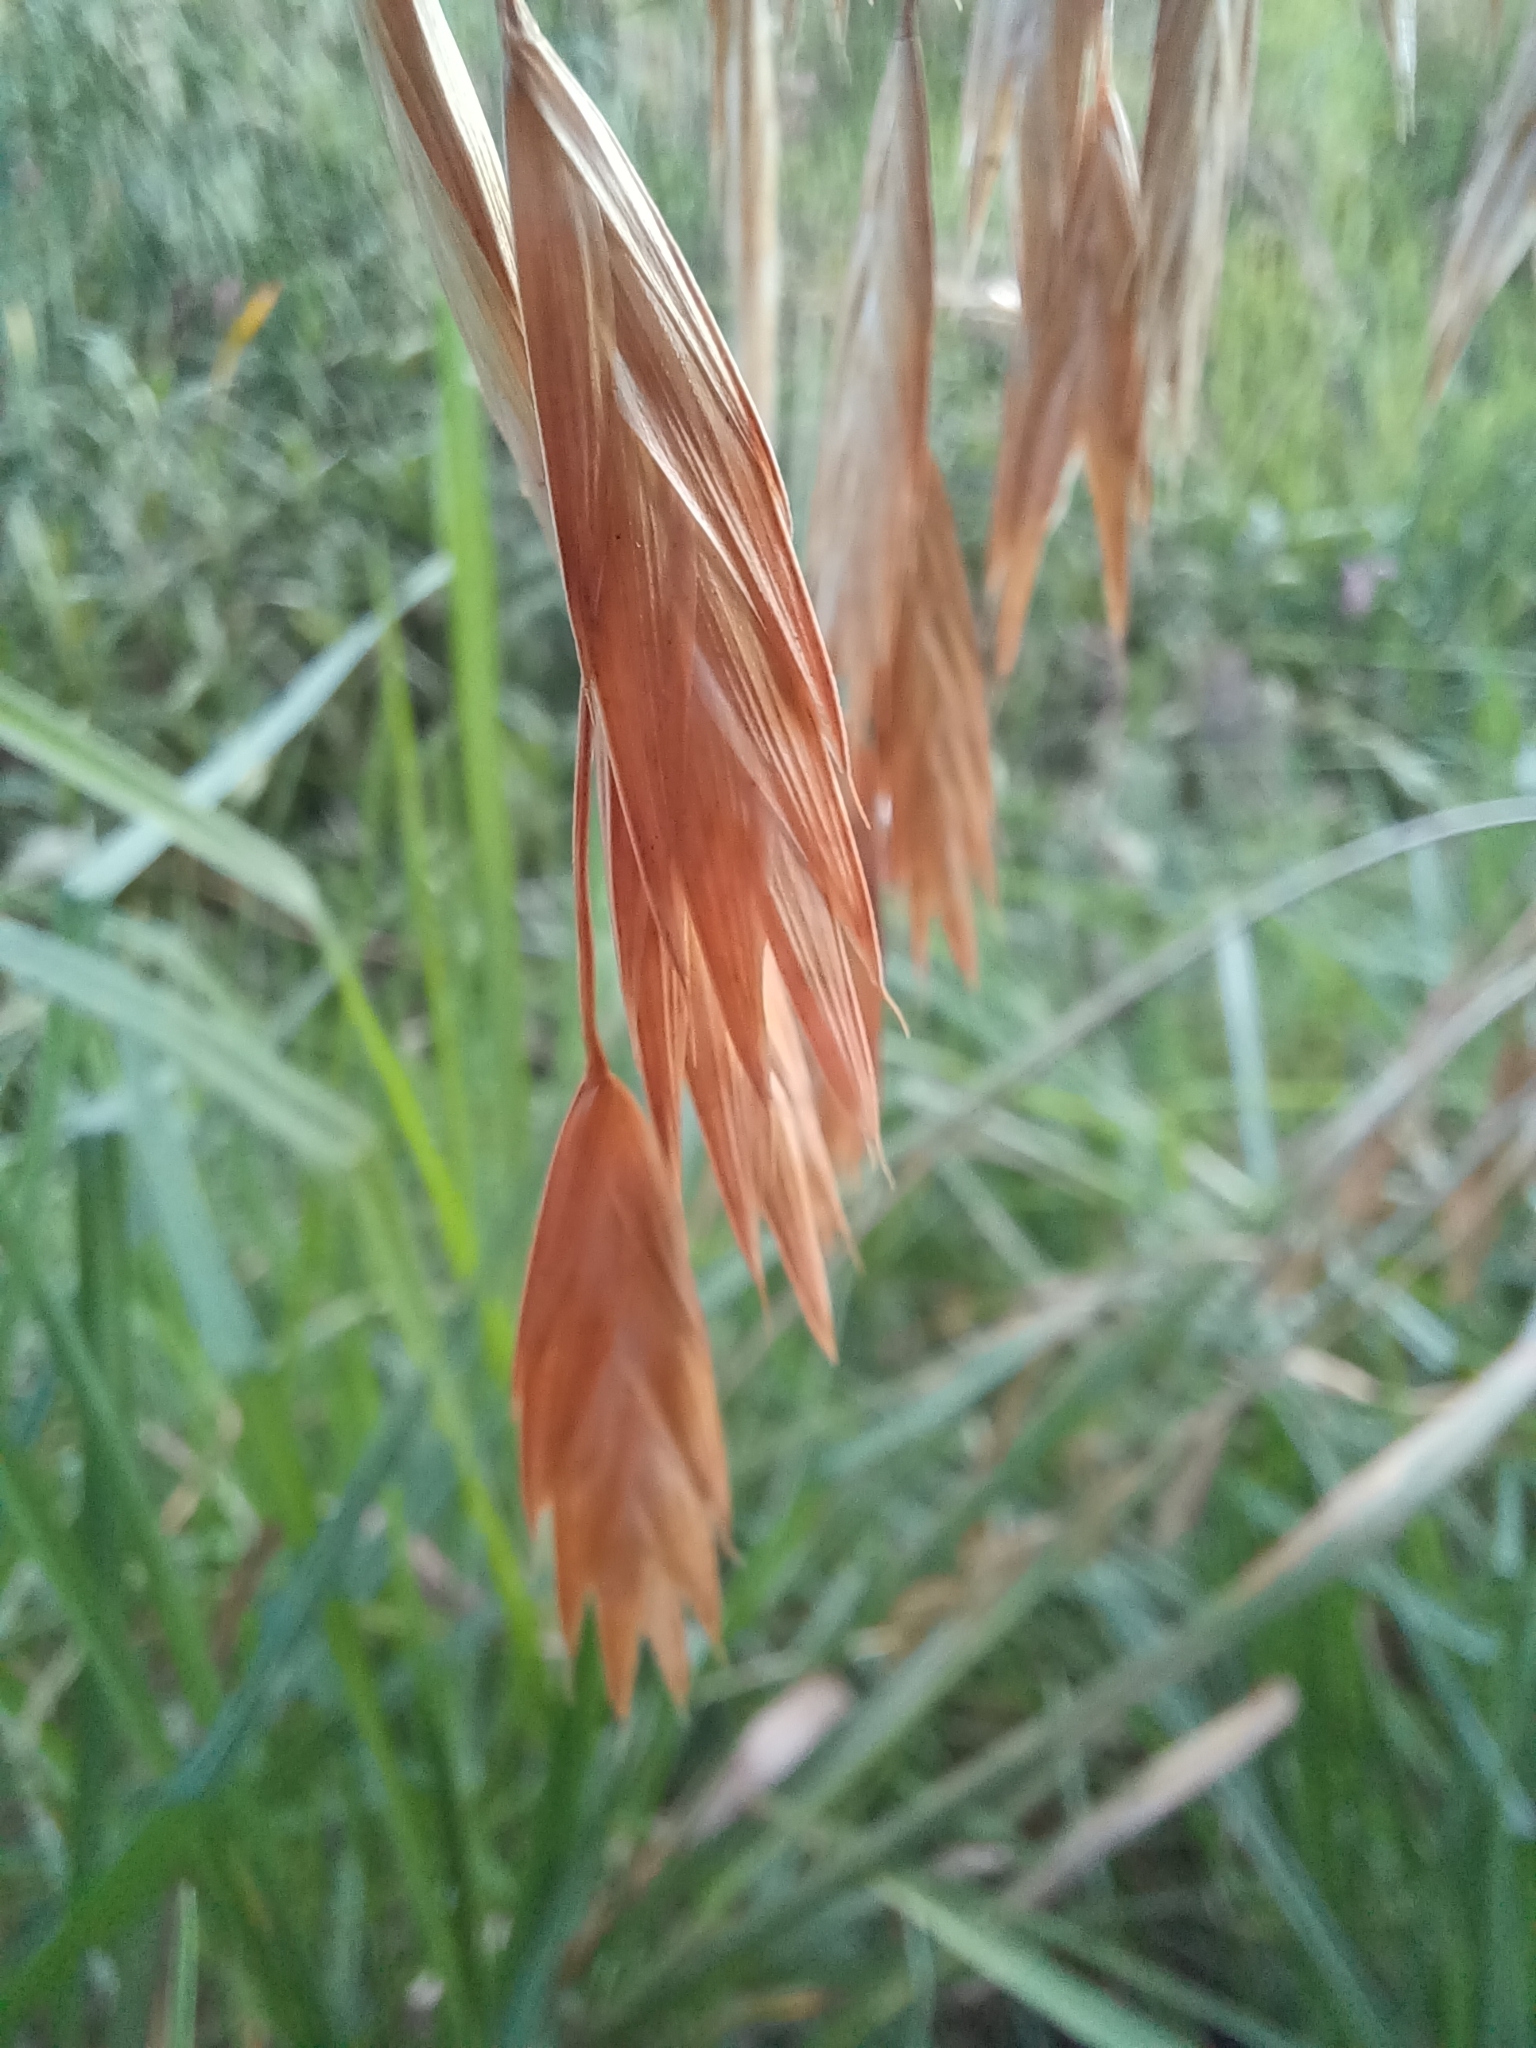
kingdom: Plantae
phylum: Tracheophyta
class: Liliopsida
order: Poales
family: Poaceae
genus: Bromus
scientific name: Bromus catharticus
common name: Rescuegrass
